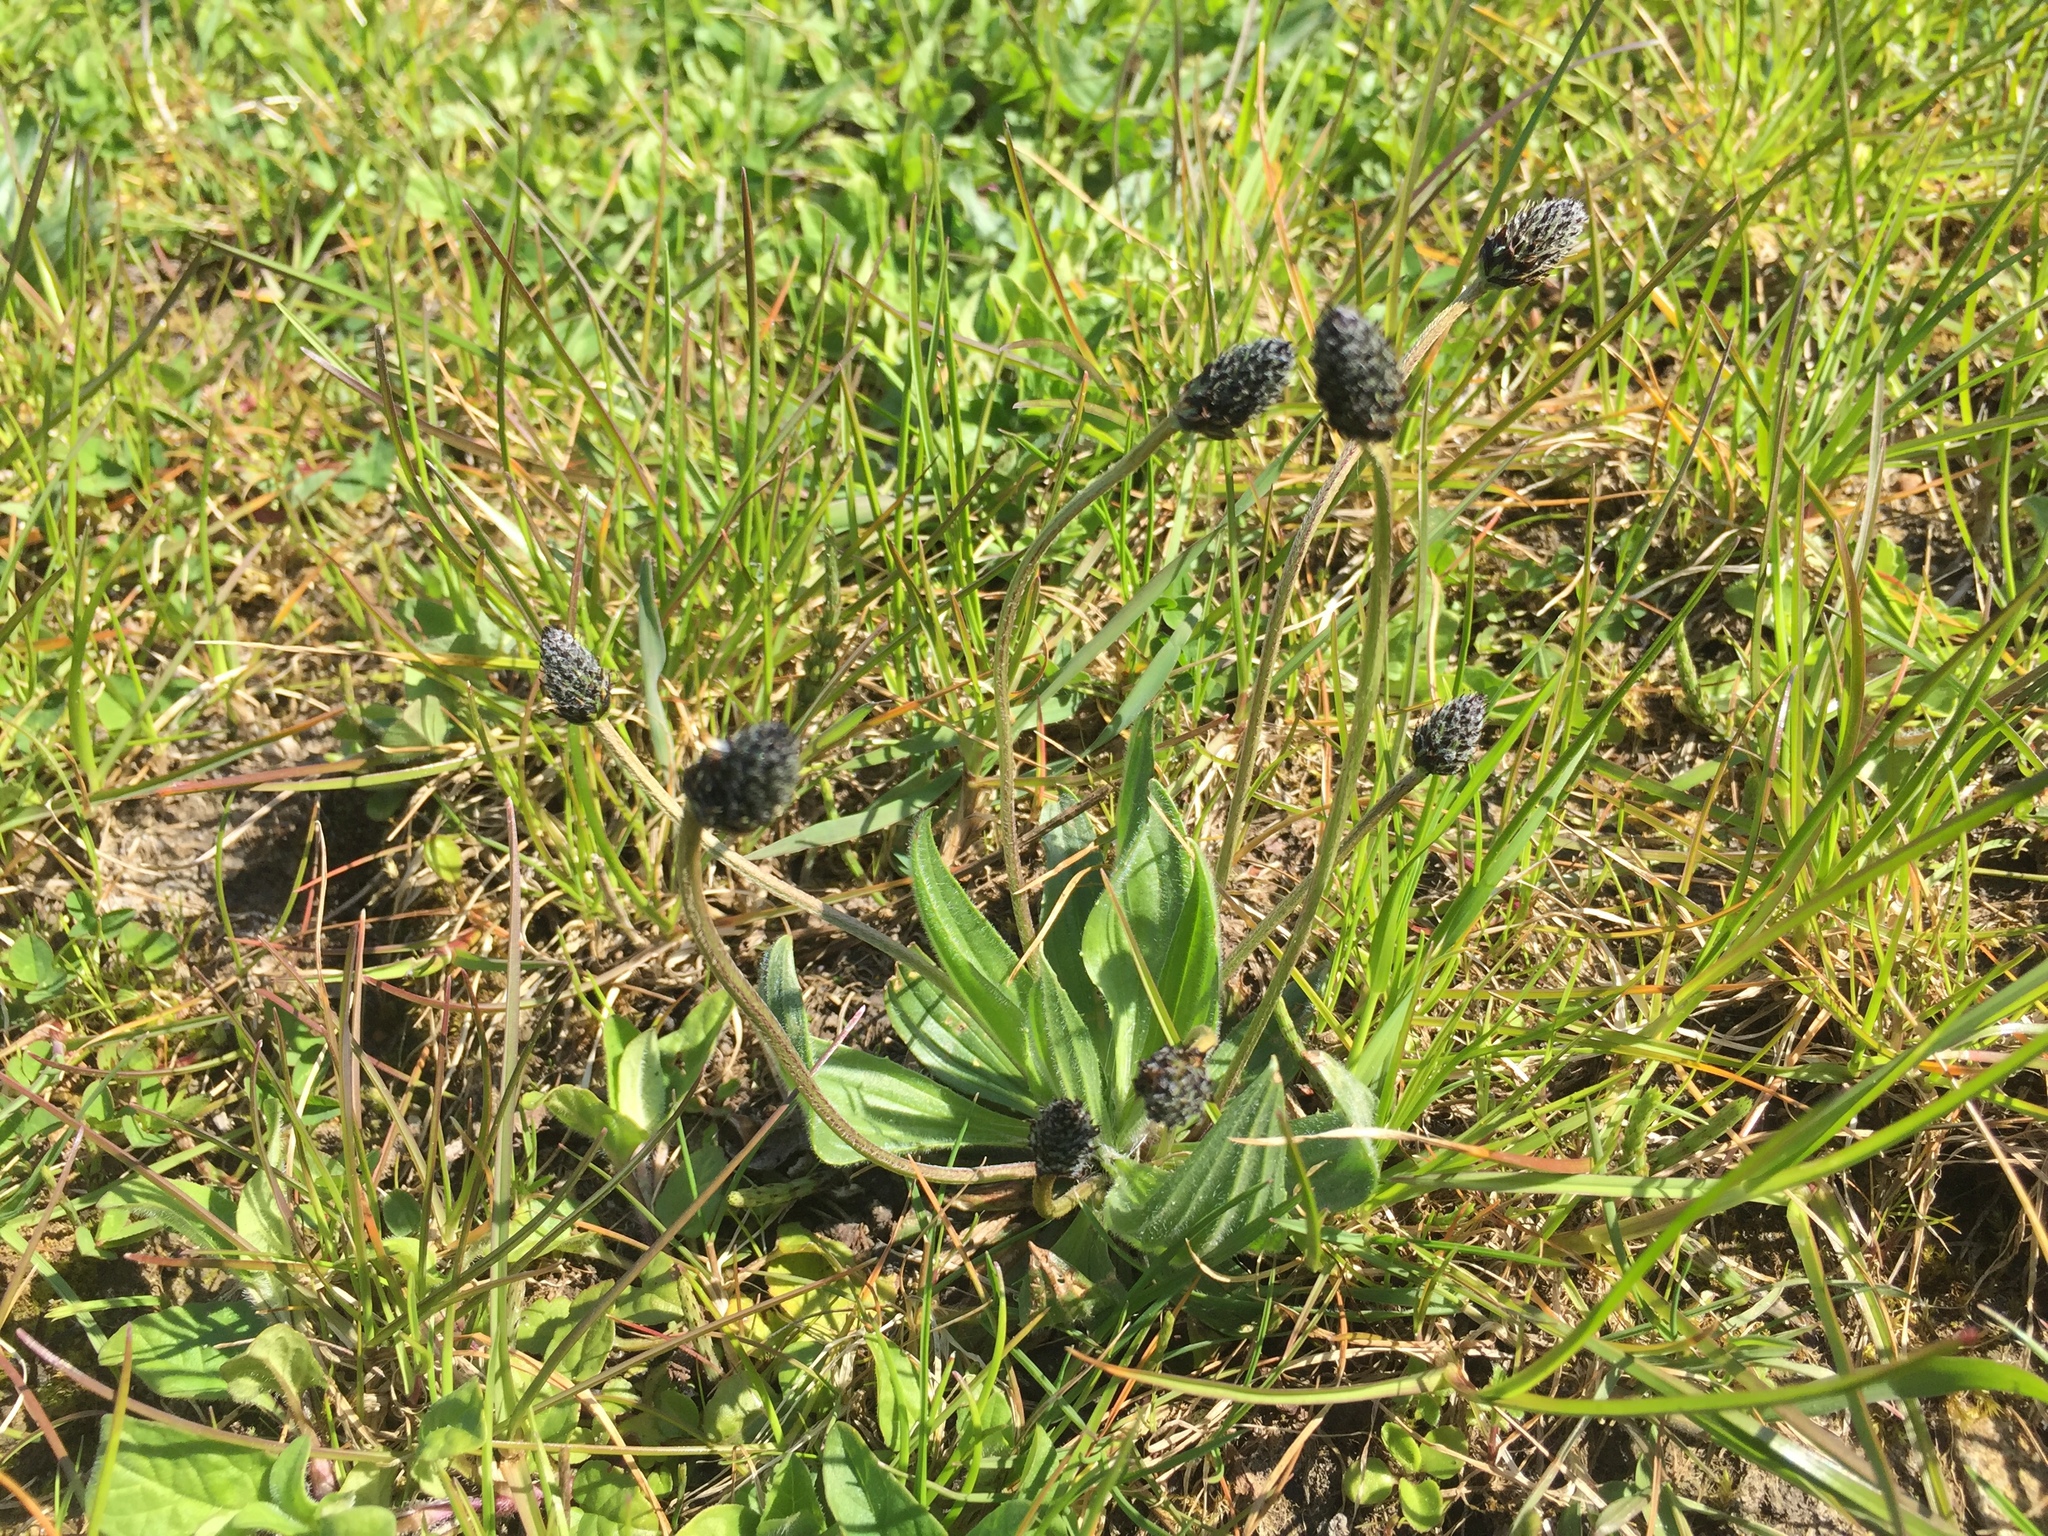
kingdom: Plantae
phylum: Tracheophyta
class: Magnoliopsida
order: Lamiales
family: Plantaginaceae
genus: Plantago
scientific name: Plantago lanceolata
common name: Ribwort plantain
